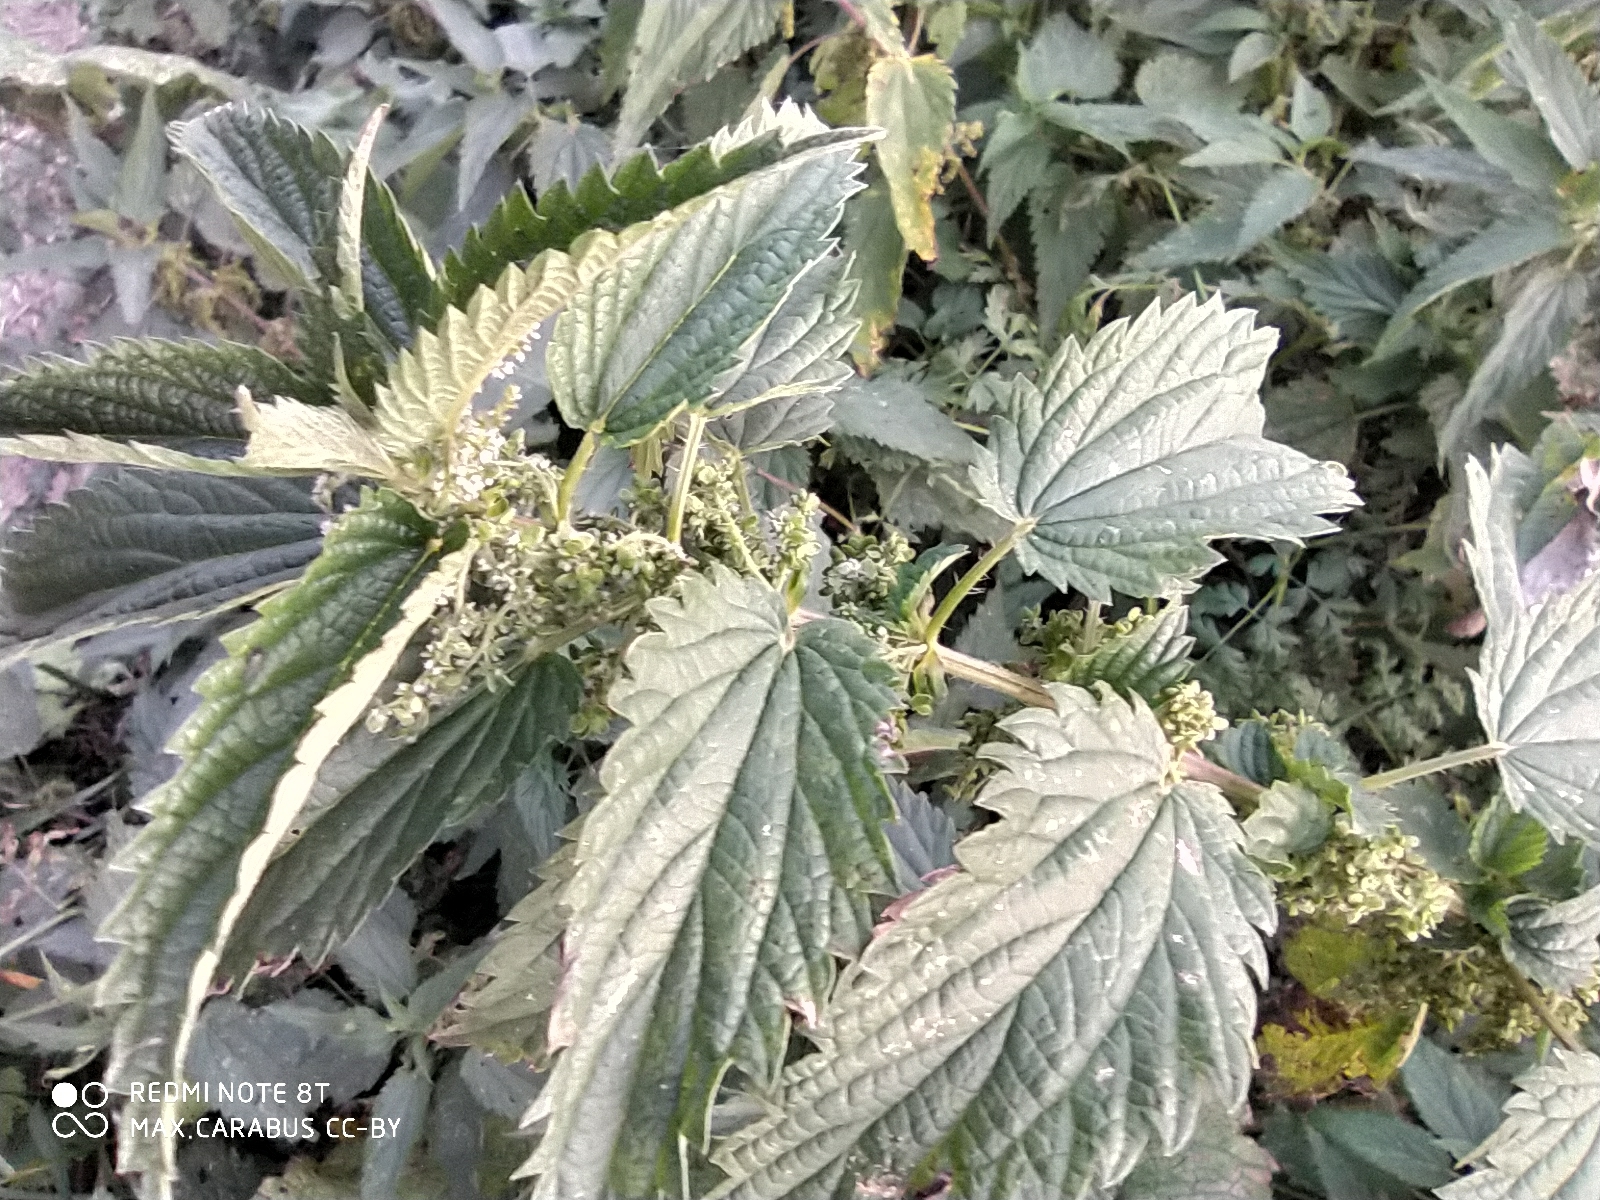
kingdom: Plantae
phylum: Tracheophyta
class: Magnoliopsida
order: Rosales
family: Urticaceae
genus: Urtica
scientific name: Urtica dioica
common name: Common nettle
